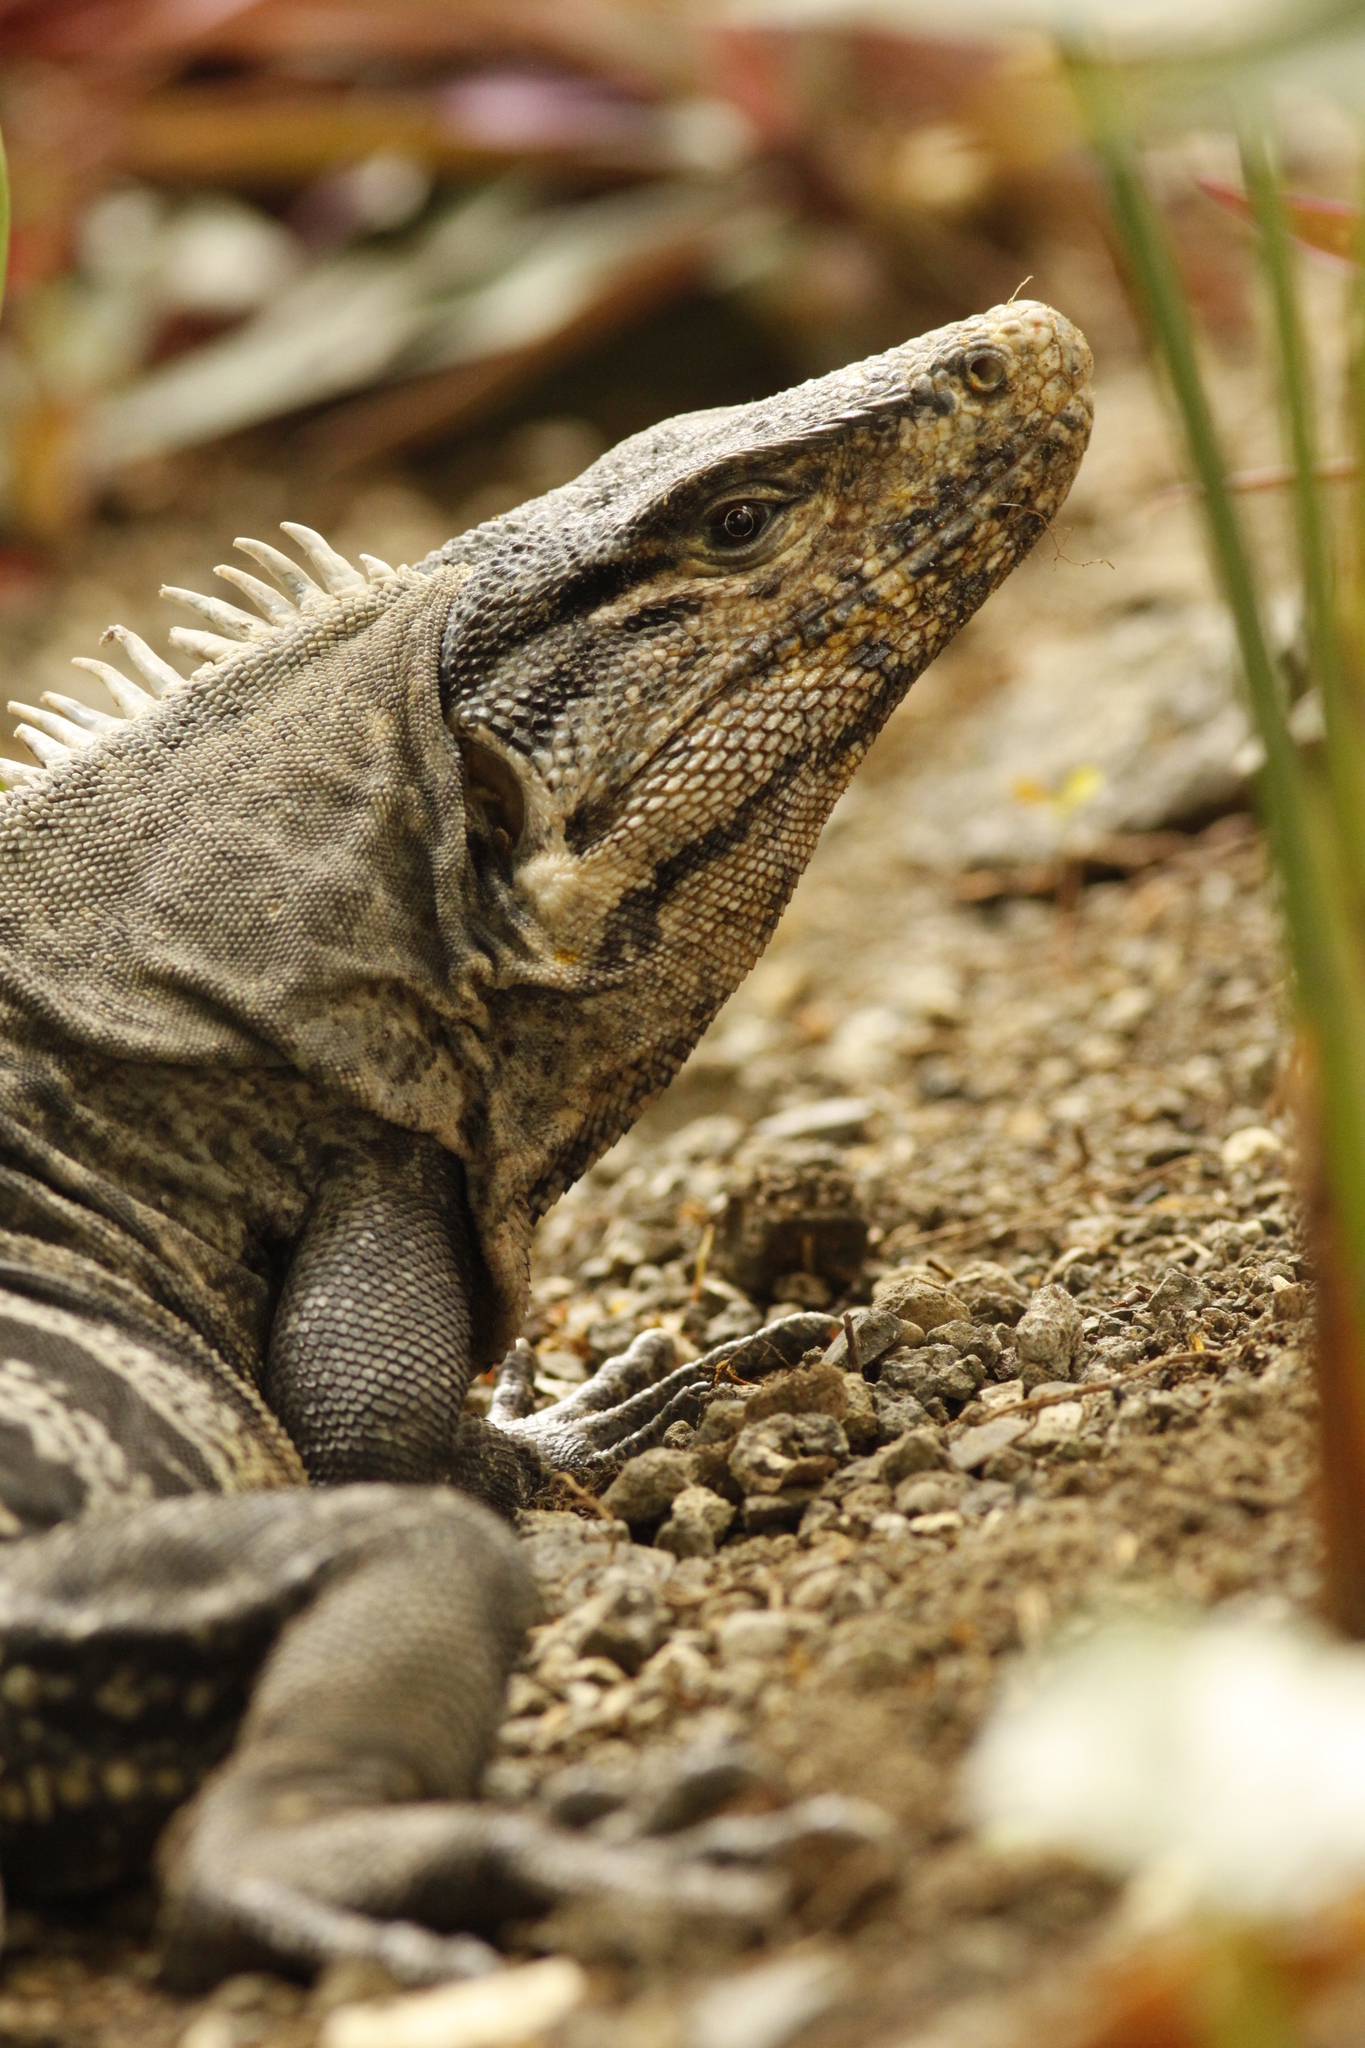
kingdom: Animalia
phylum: Chordata
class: Squamata
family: Iguanidae
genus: Ctenosaura
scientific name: Ctenosaura similis
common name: Black spiny-tailed iguana
